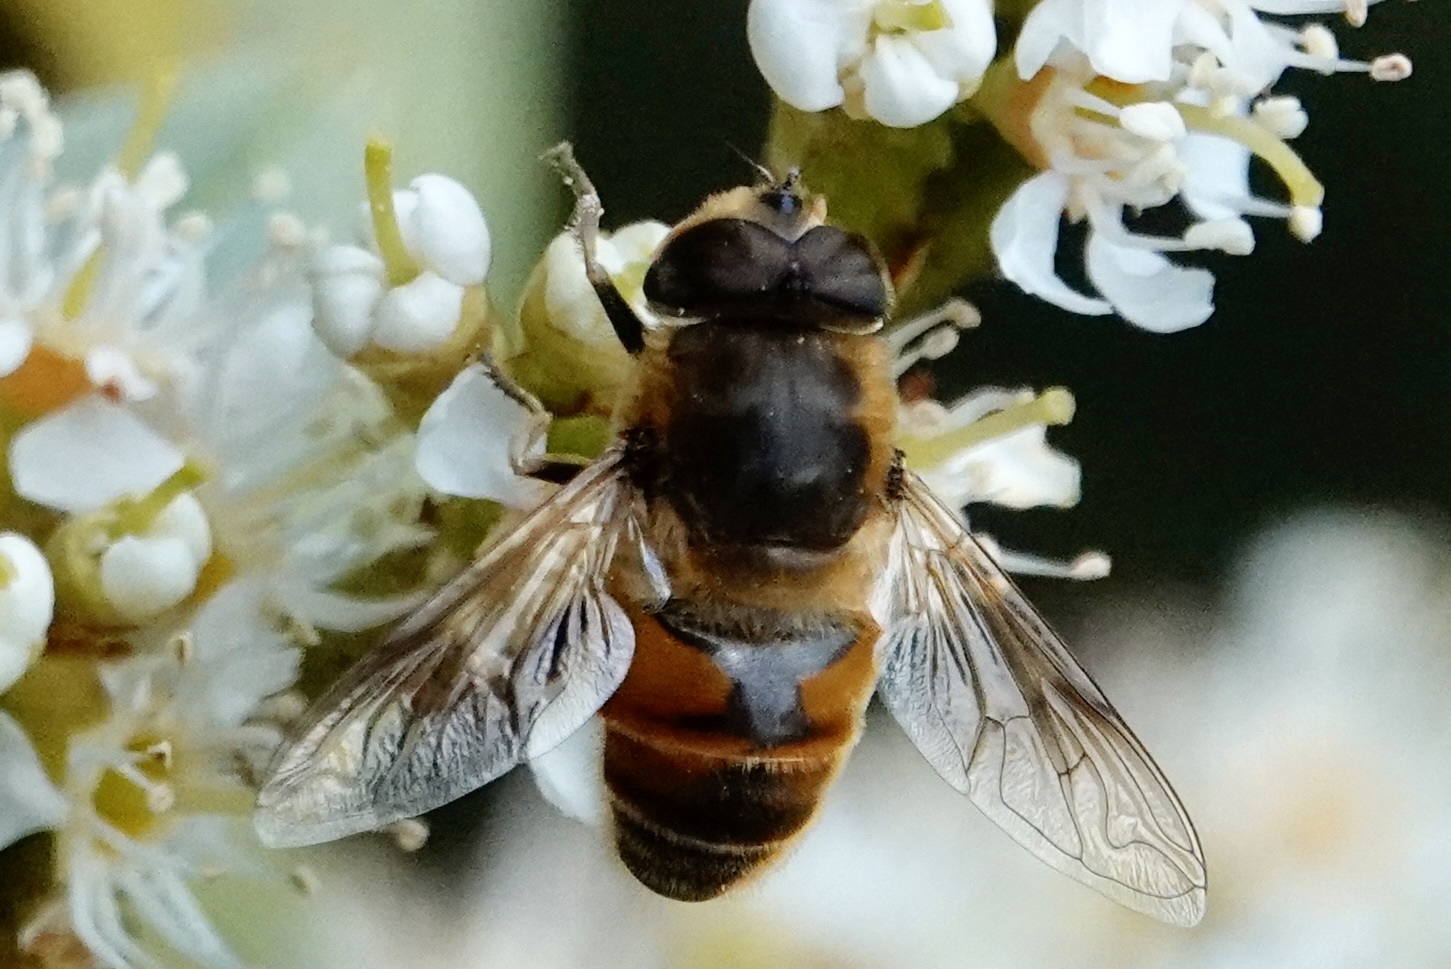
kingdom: Animalia
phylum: Arthropoda
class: Insecta
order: Diptera
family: Syrphidae
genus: Eristalis
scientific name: Eristalis tenax
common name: Drone fly
